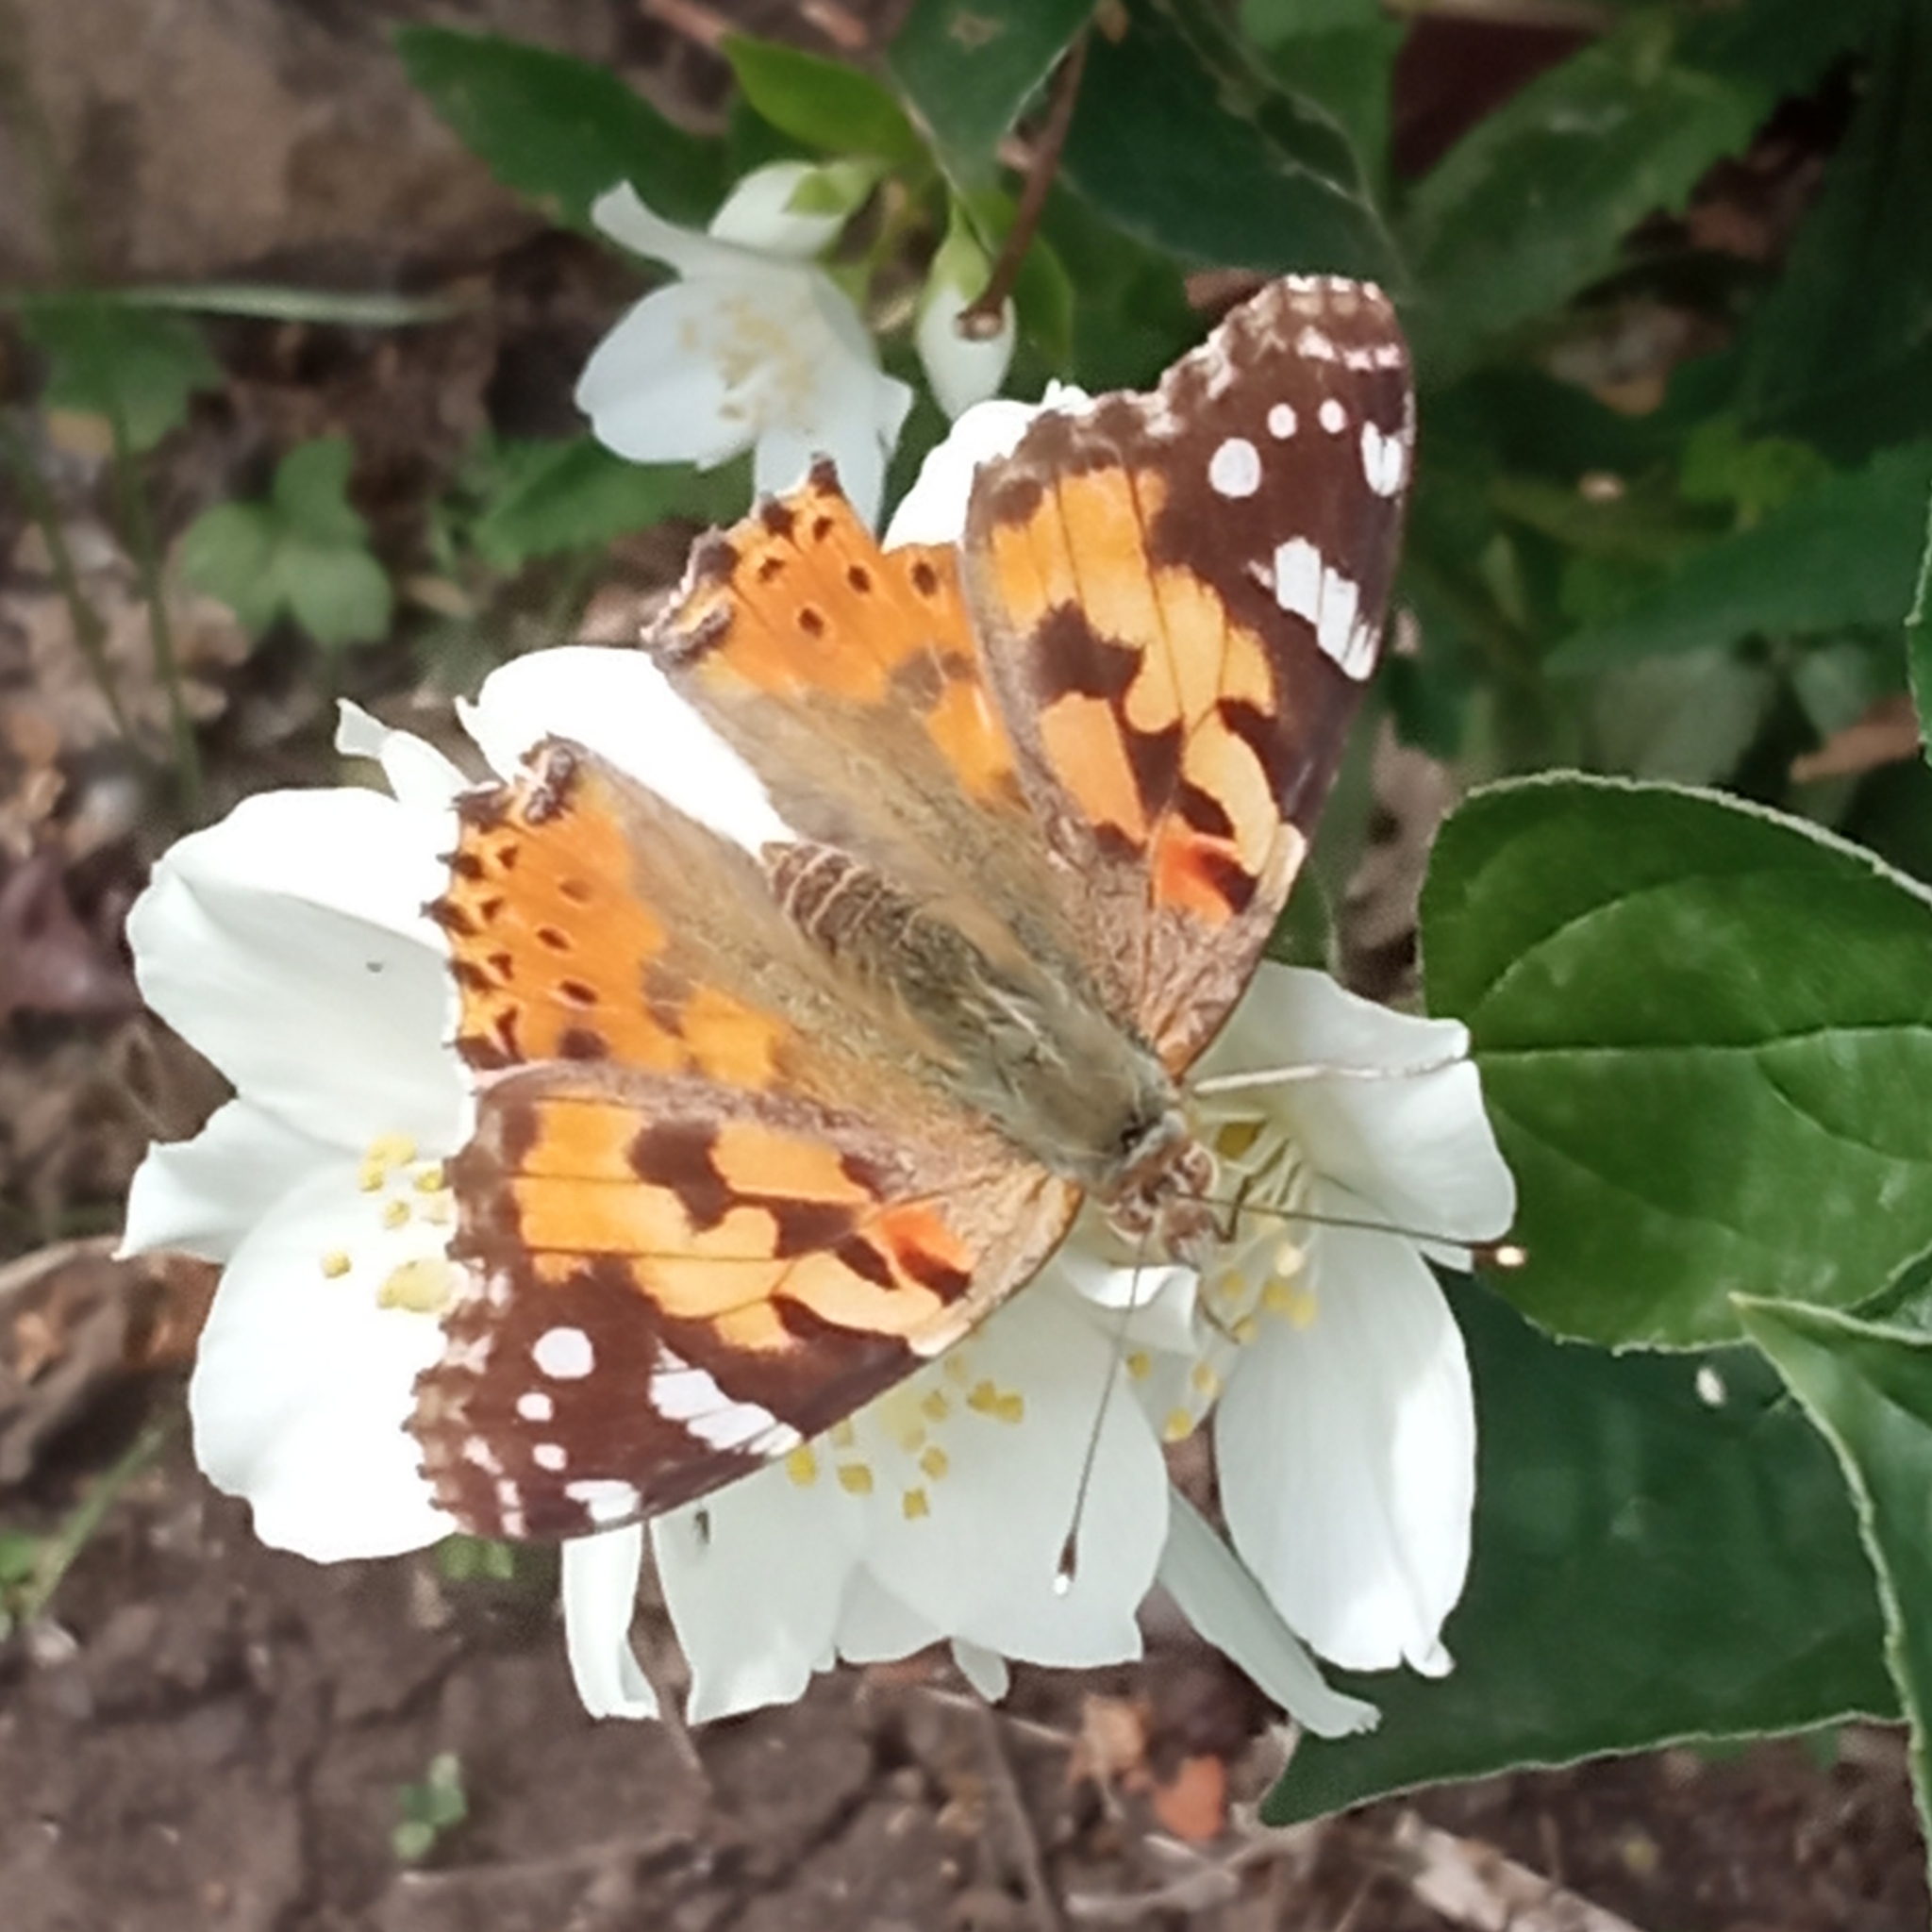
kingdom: Animalia
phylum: Arthropoda
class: Insecta
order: Lepidoptera
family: Nymphalidae
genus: Vanessa
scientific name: Vanessa cardui
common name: Painted lady
